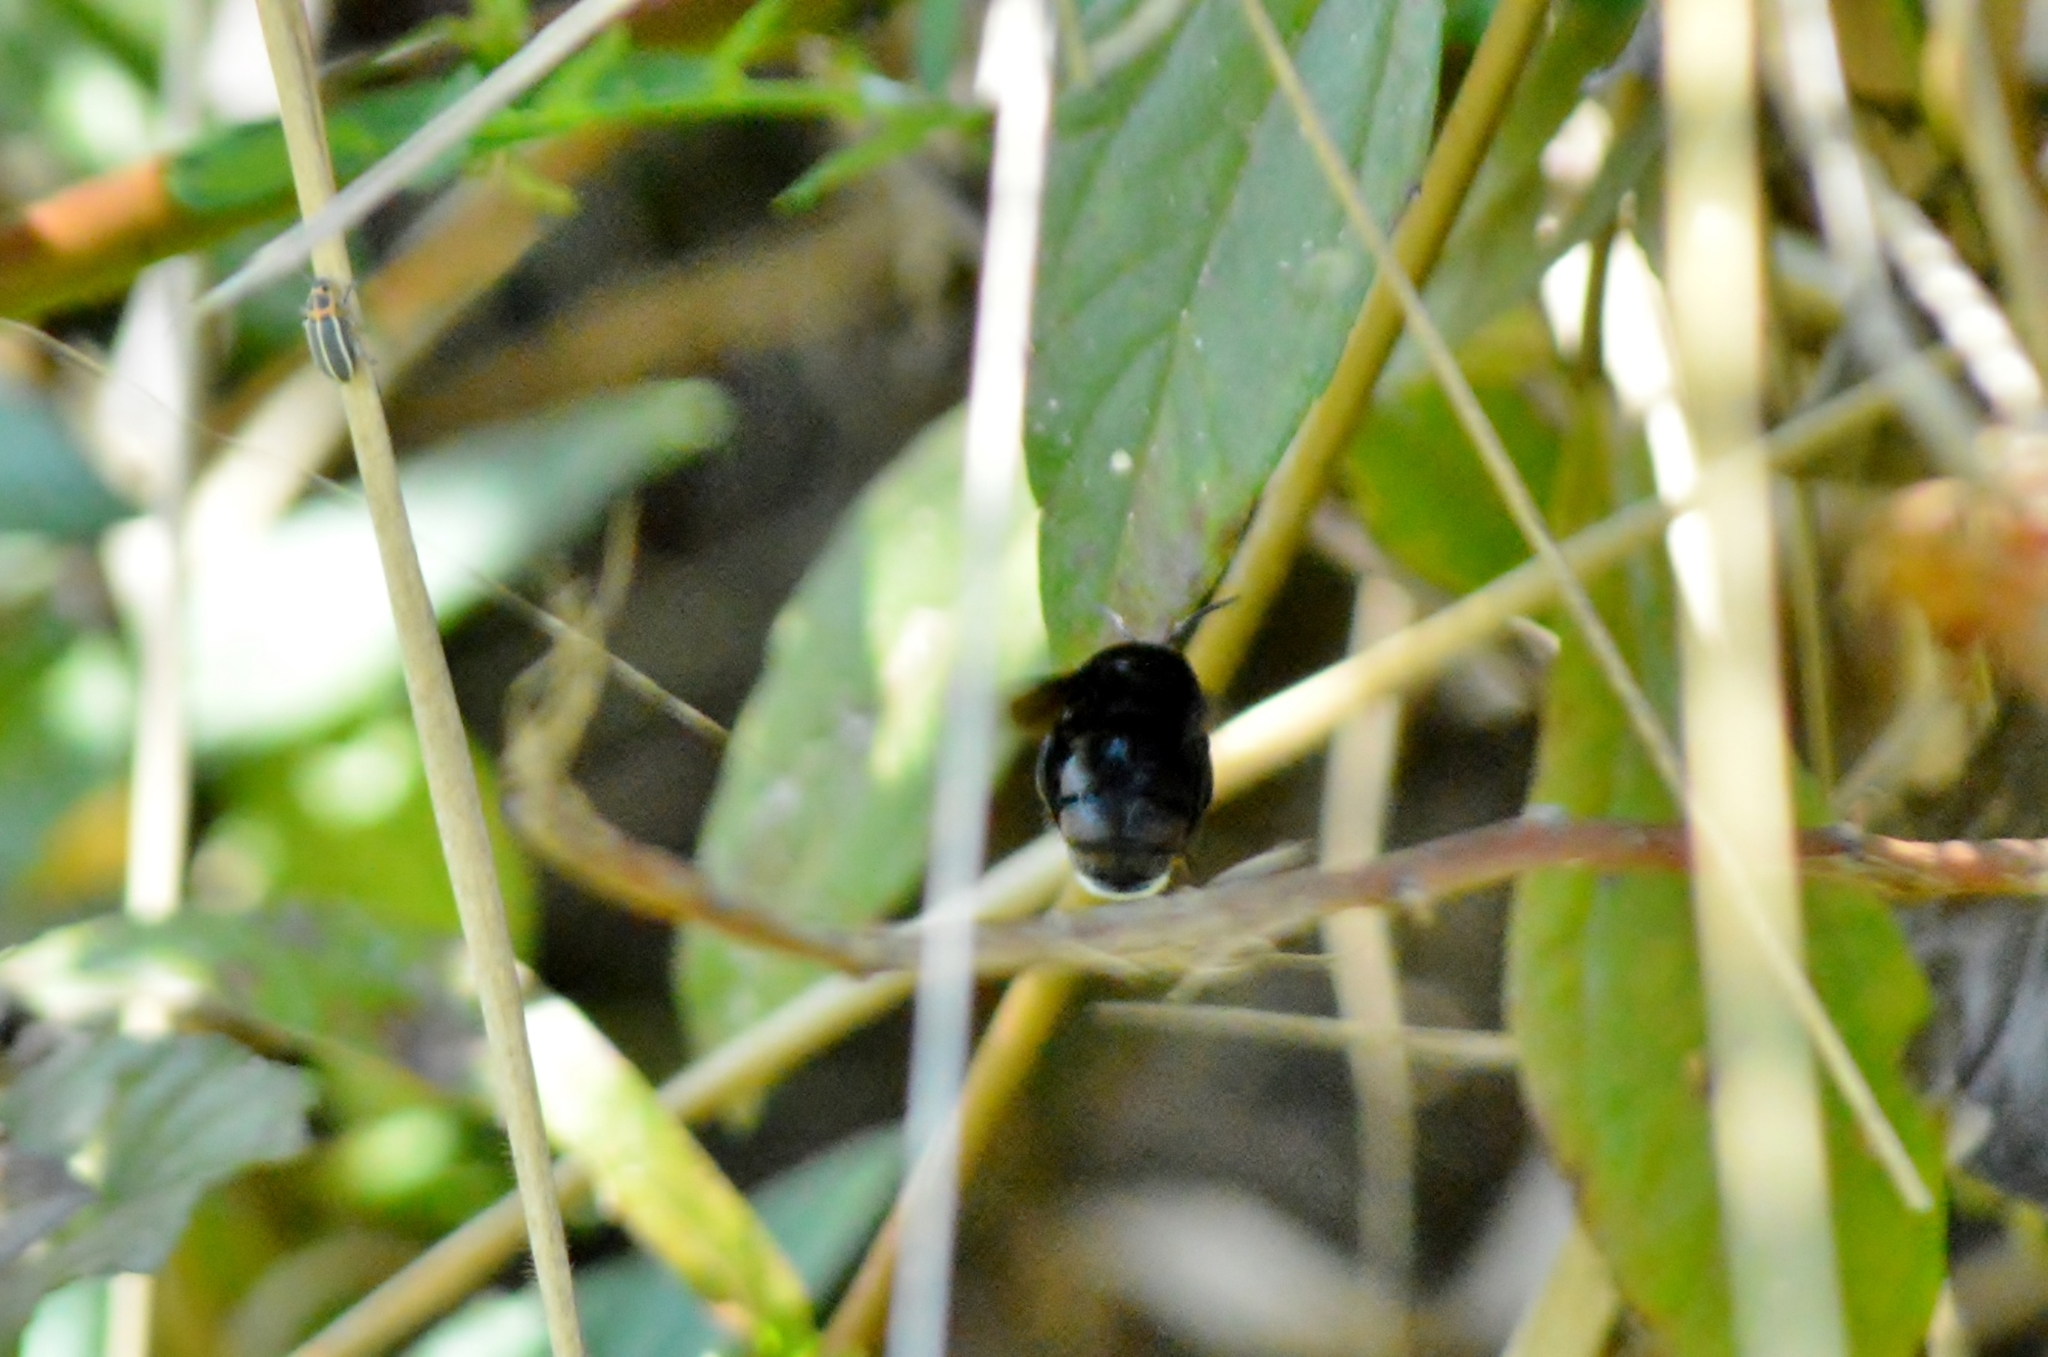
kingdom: Animalia
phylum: Arthropoda
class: Insecta
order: Hymenoptera
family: Apidae
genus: Eulaema
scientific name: Eulaema nigrita
